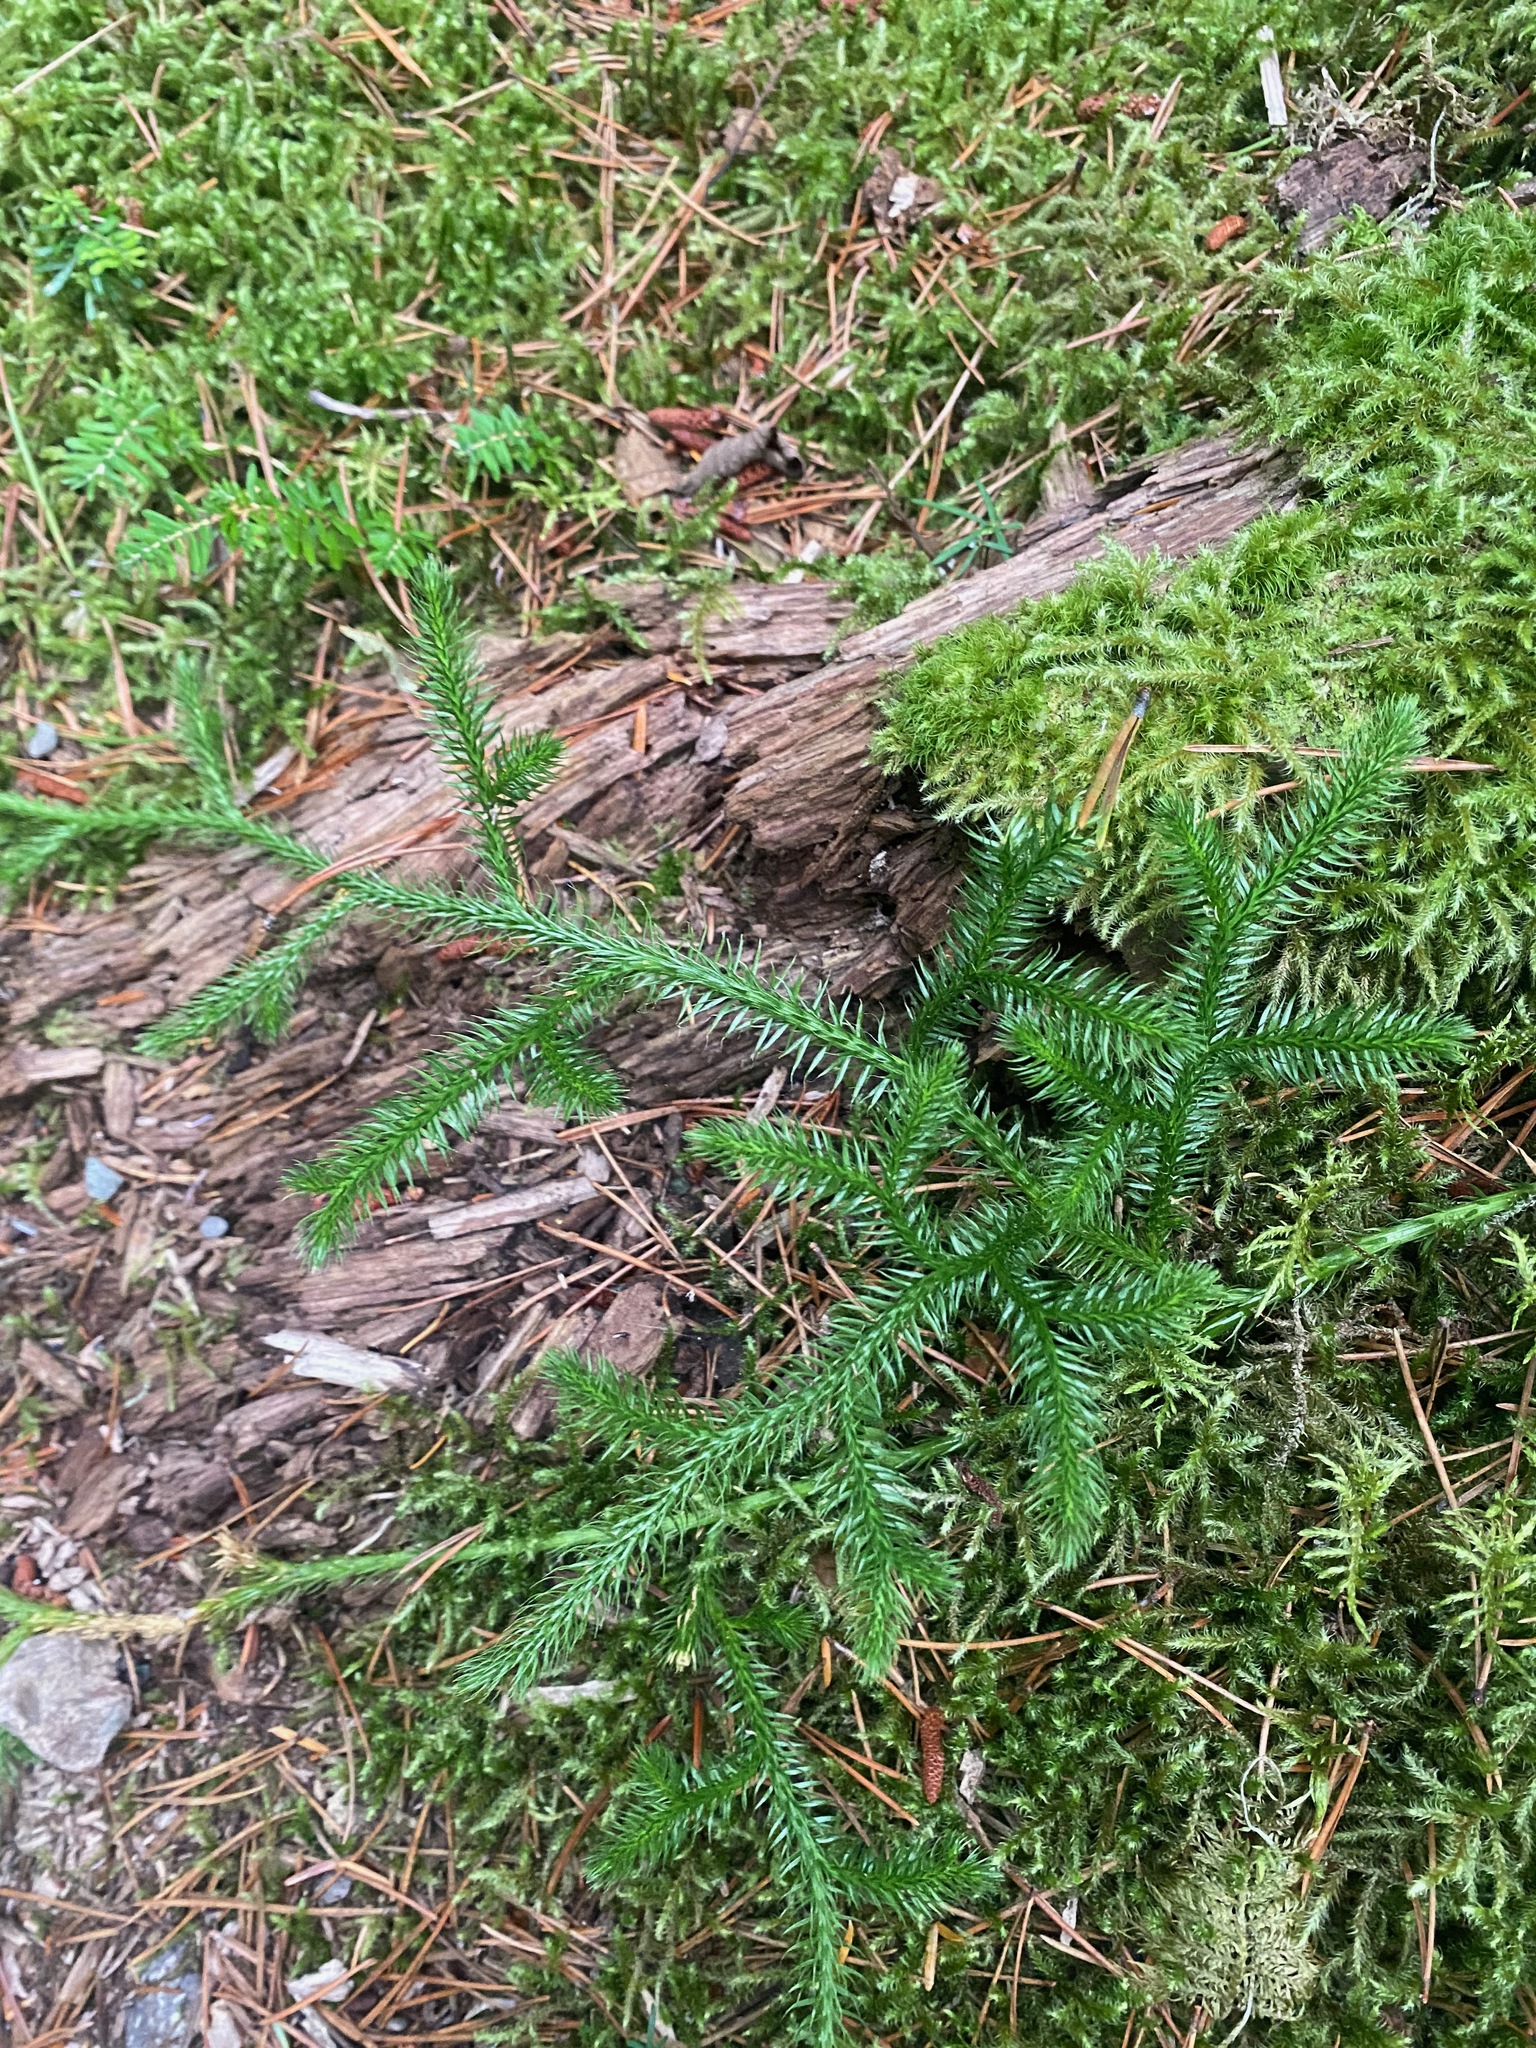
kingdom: Plantae
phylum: Tracheophyta
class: Lycopodiopsida
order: Lycopodiales
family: Lycopodiaceae
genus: Lycopodium
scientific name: Lycopodium clavatum
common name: Stag's-horn clubmoss
